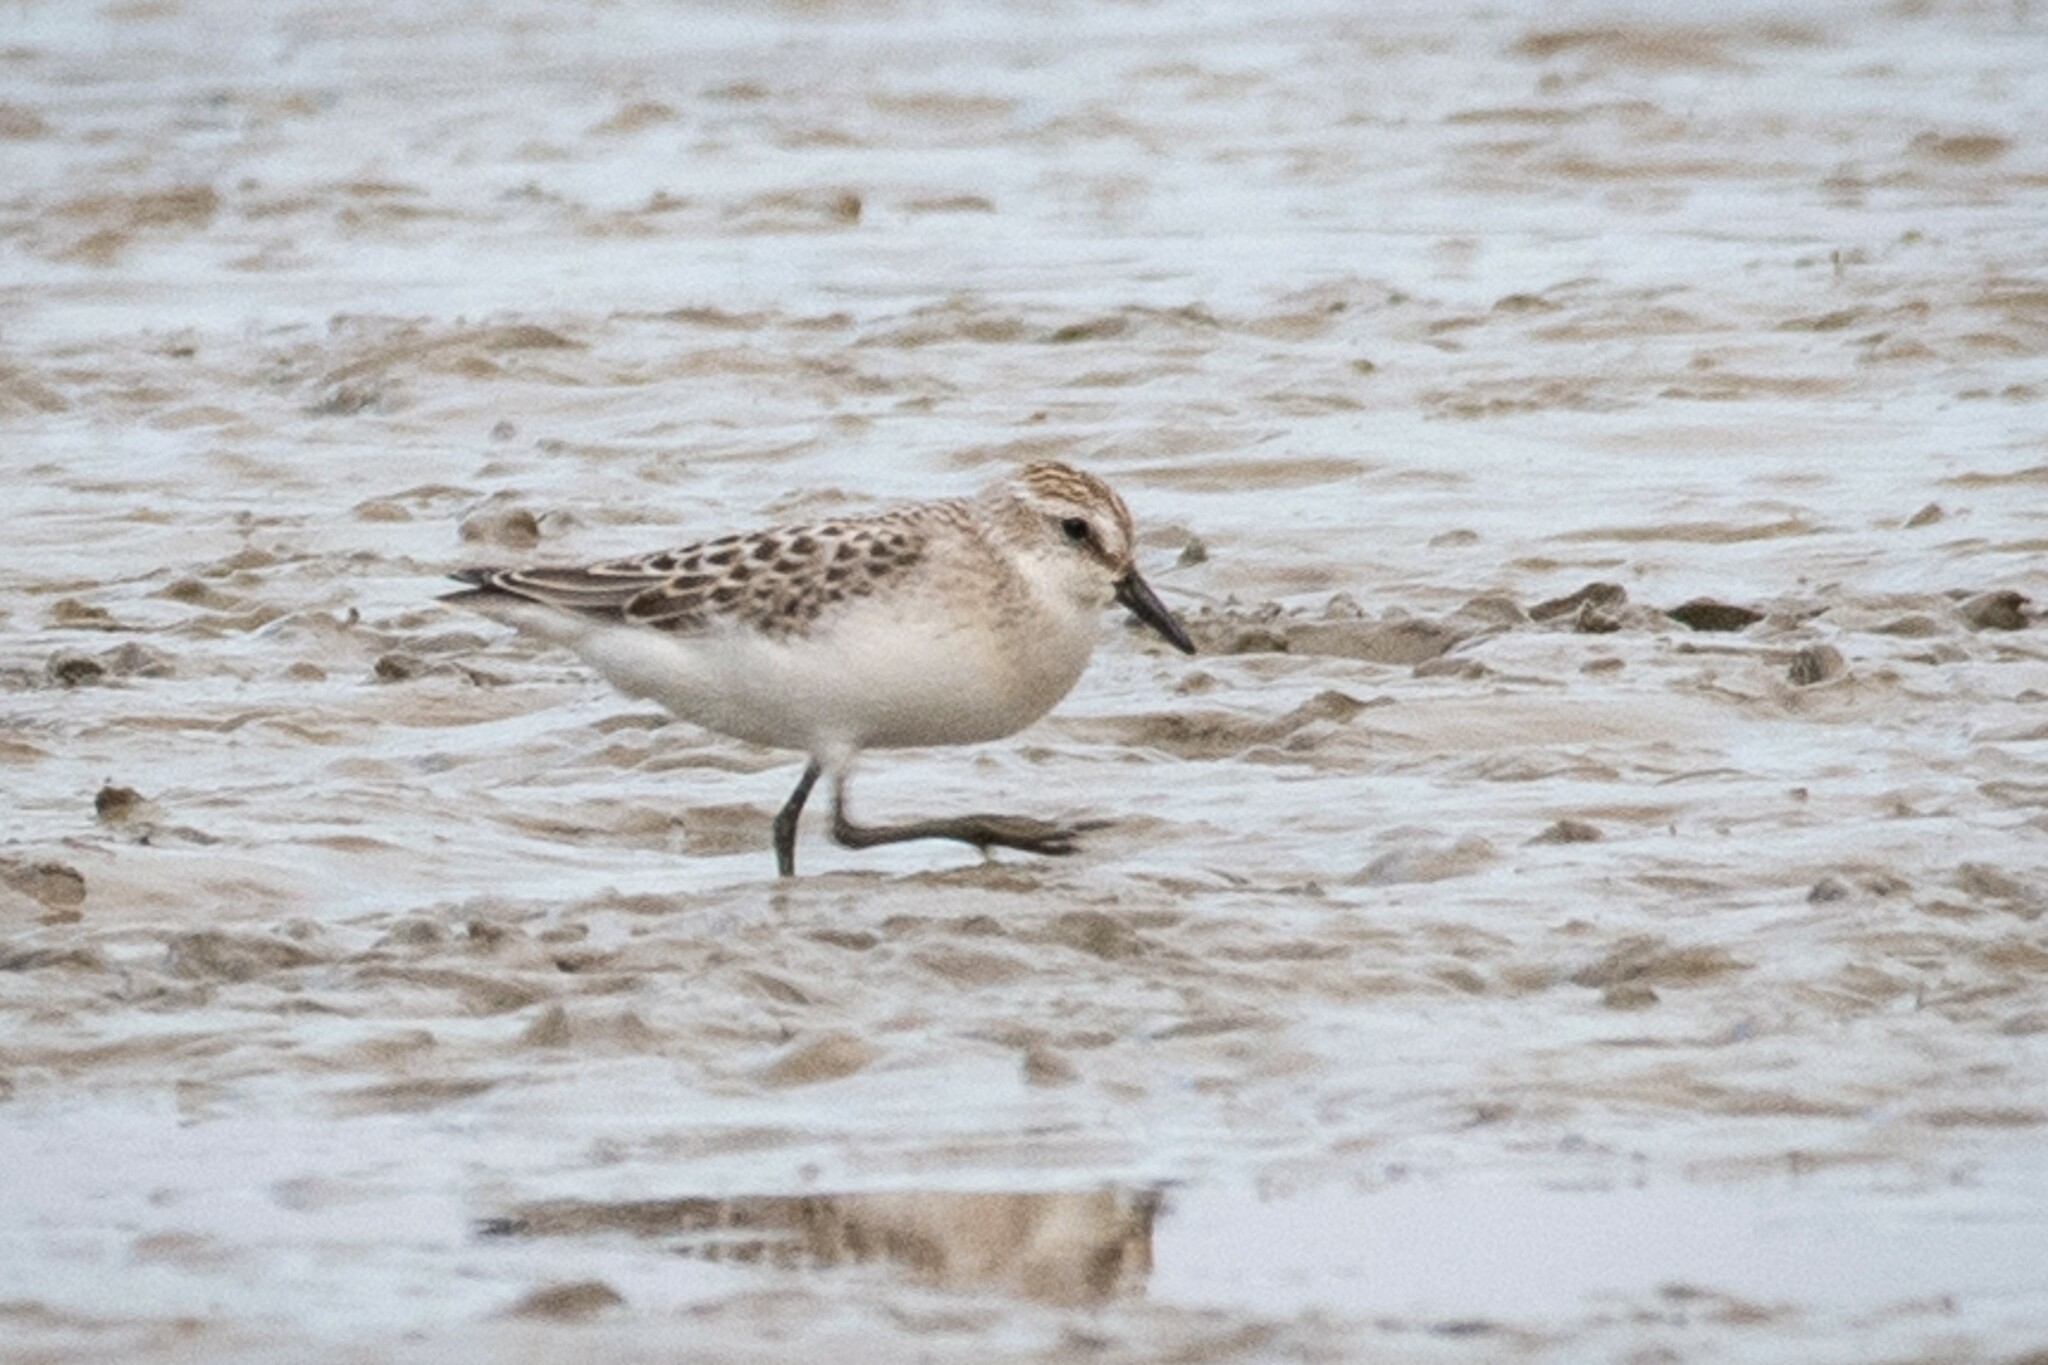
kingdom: Animalia
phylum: Chordata
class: Aves
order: Charadriiformes
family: Scolopacidae
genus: Calidris
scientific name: Calidris pusilla
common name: Semipalmated sandpiper
